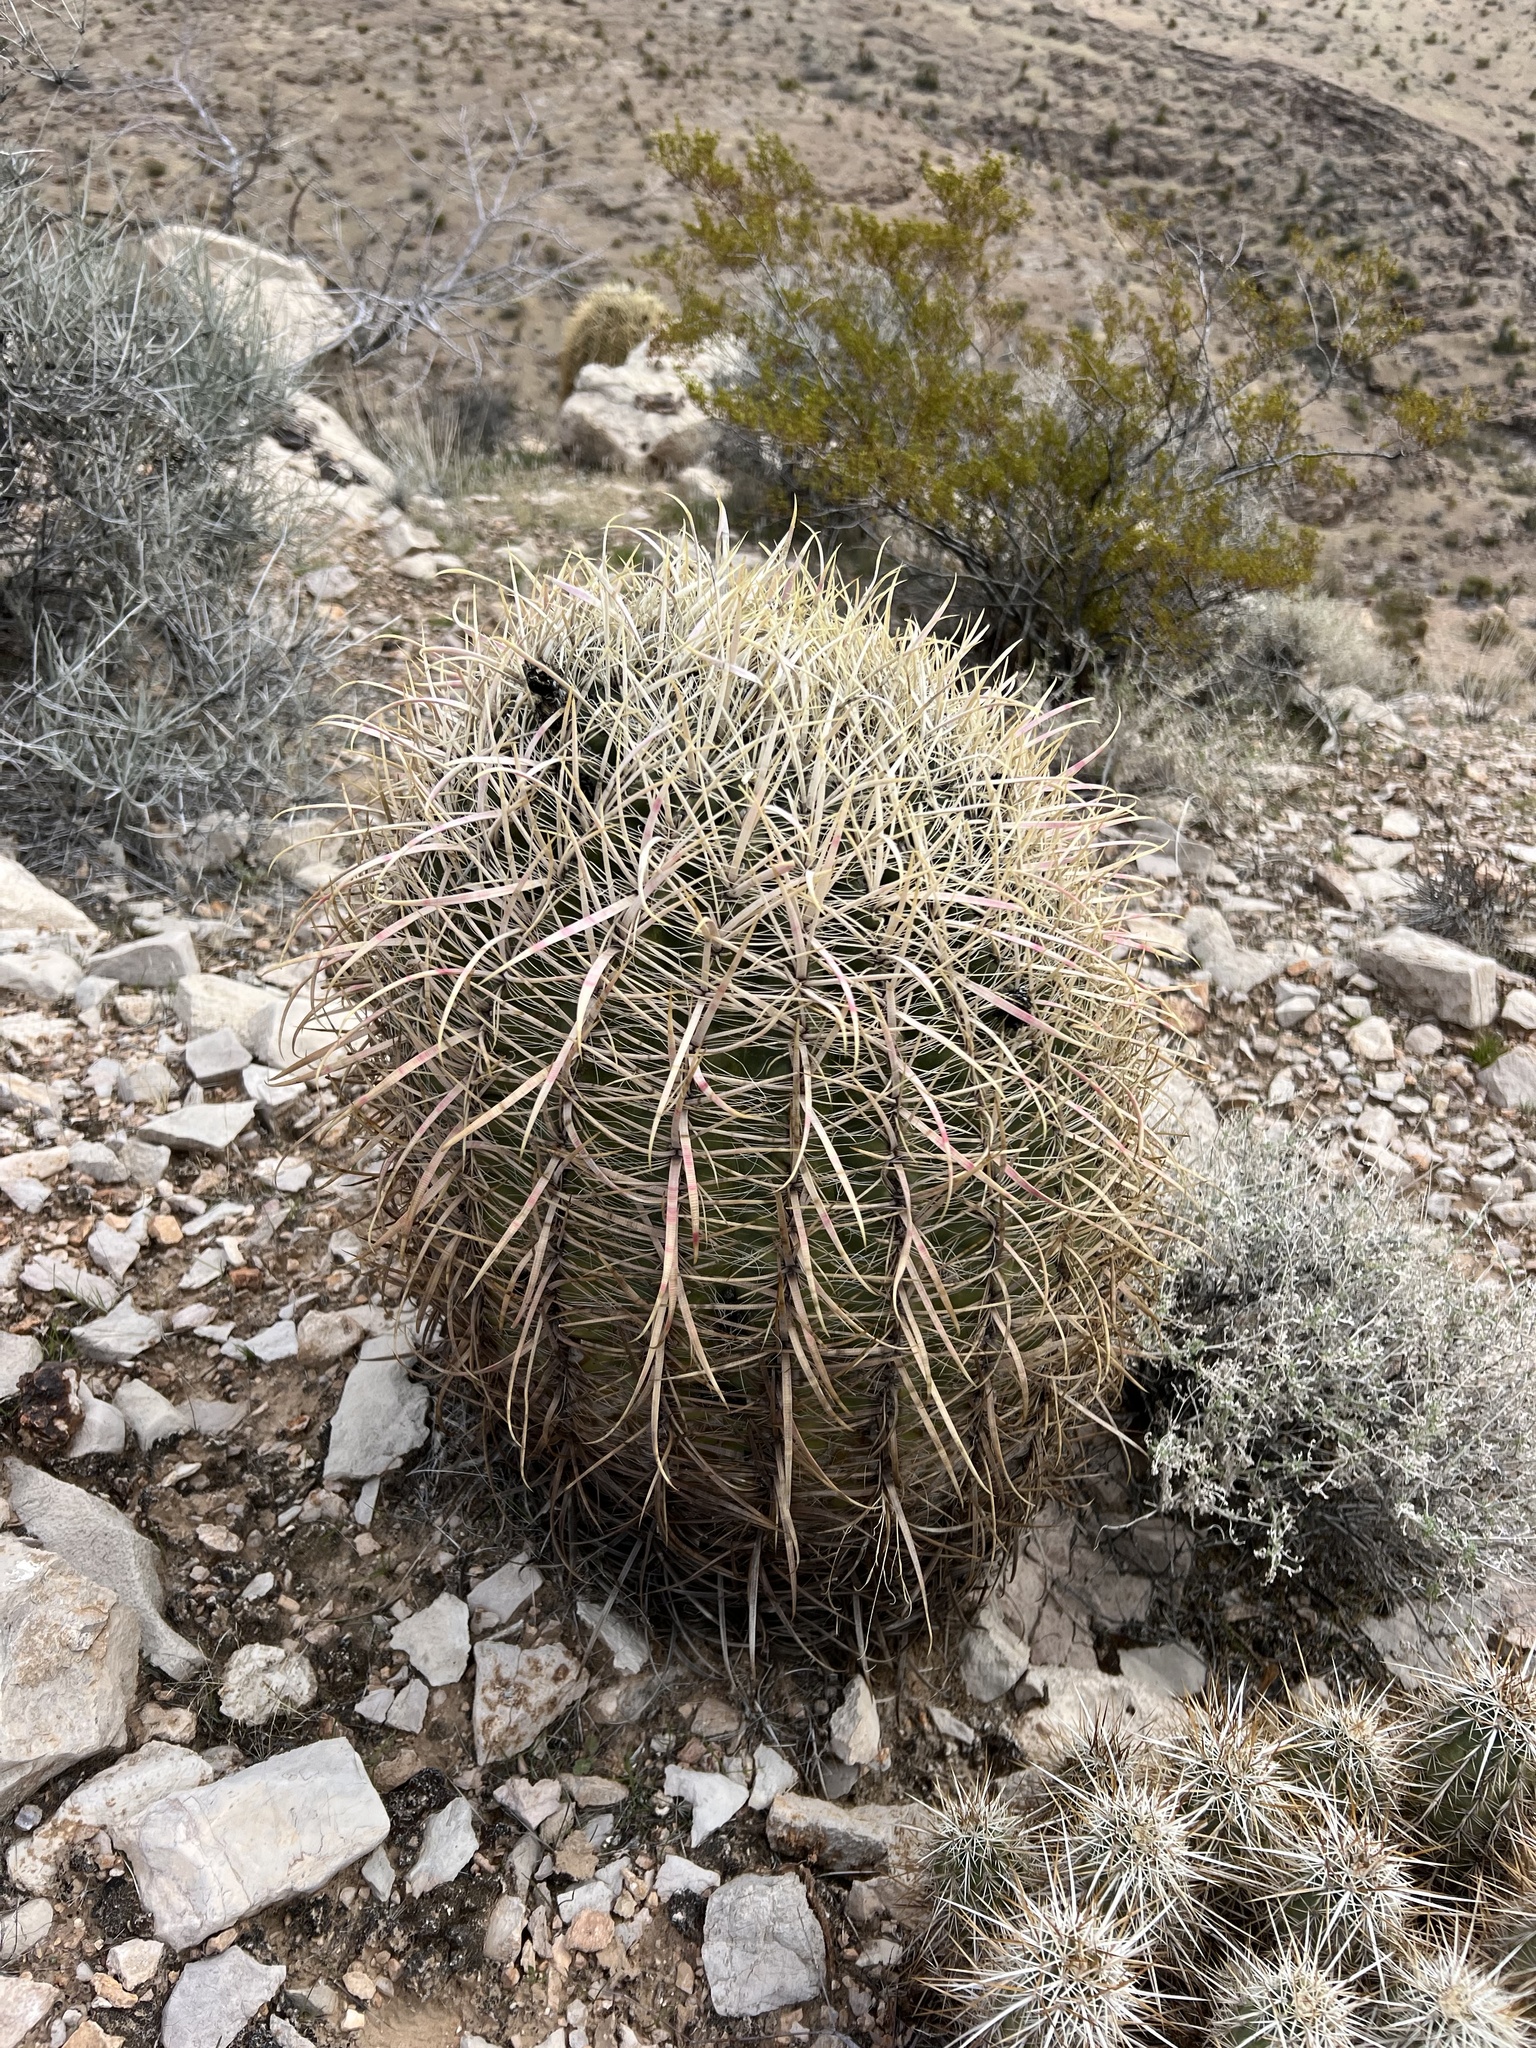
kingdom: Plantae
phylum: Tracheophyta
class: Magnoliopsida
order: Caryophyllales
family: Cactaceae
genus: Ferocactus
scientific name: Ferocactus cylindraceus
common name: California barrel cactus
